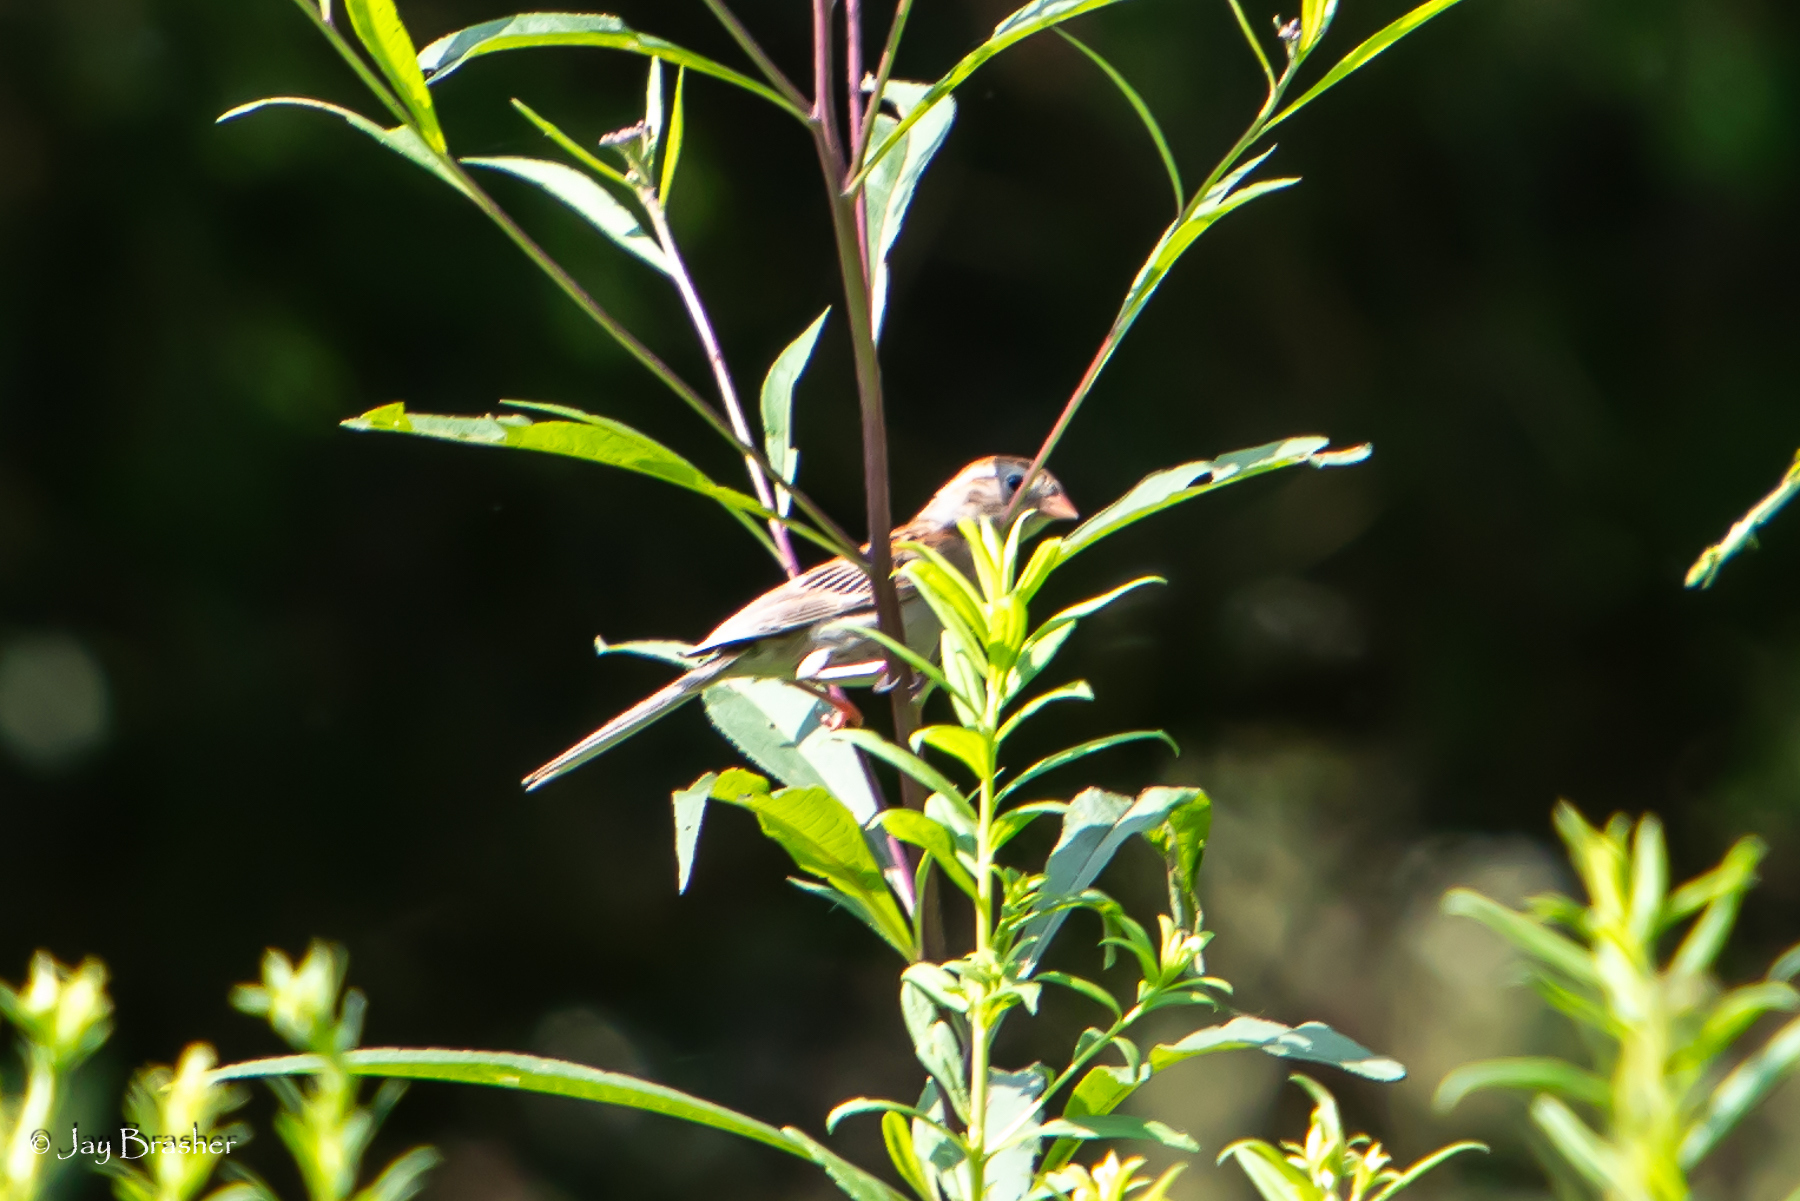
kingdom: Animalia
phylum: Chordata
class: Aves
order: Passeriformes
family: Passerellidae
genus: Spizella
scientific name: Spizella pusilla
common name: Field sparrow
